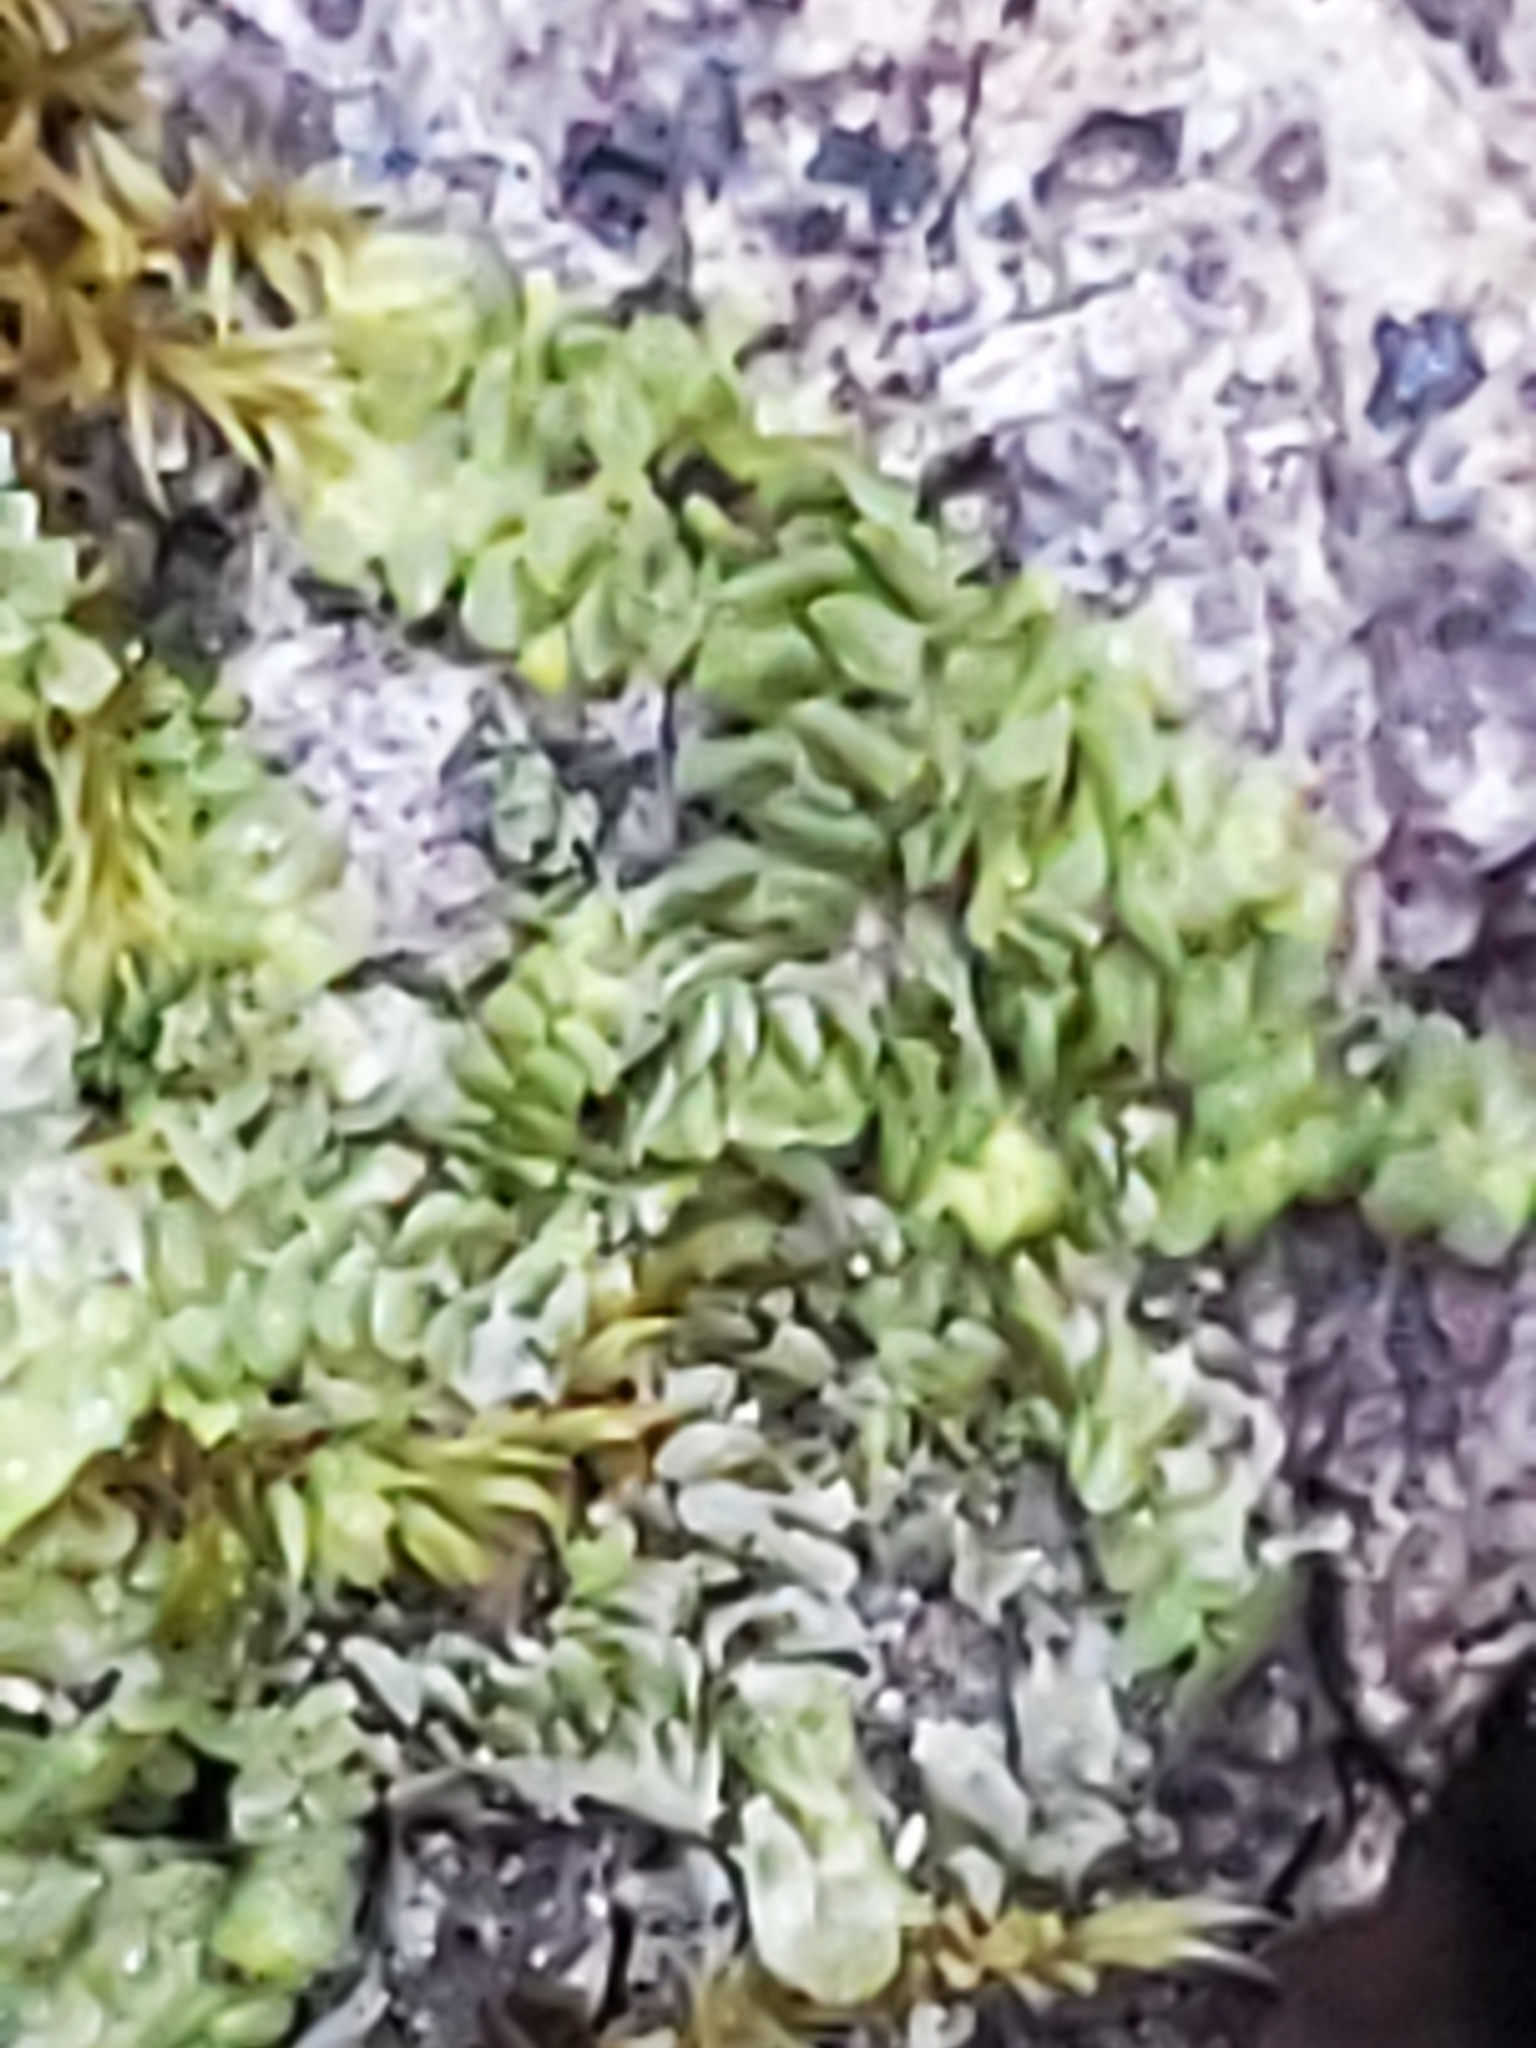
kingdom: Plantae
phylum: Marchantiophyta
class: Jungermanniopsida
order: Porellales
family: Radulaceae
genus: Radula
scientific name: Radula complanata
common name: Flat-leaved scalewort
